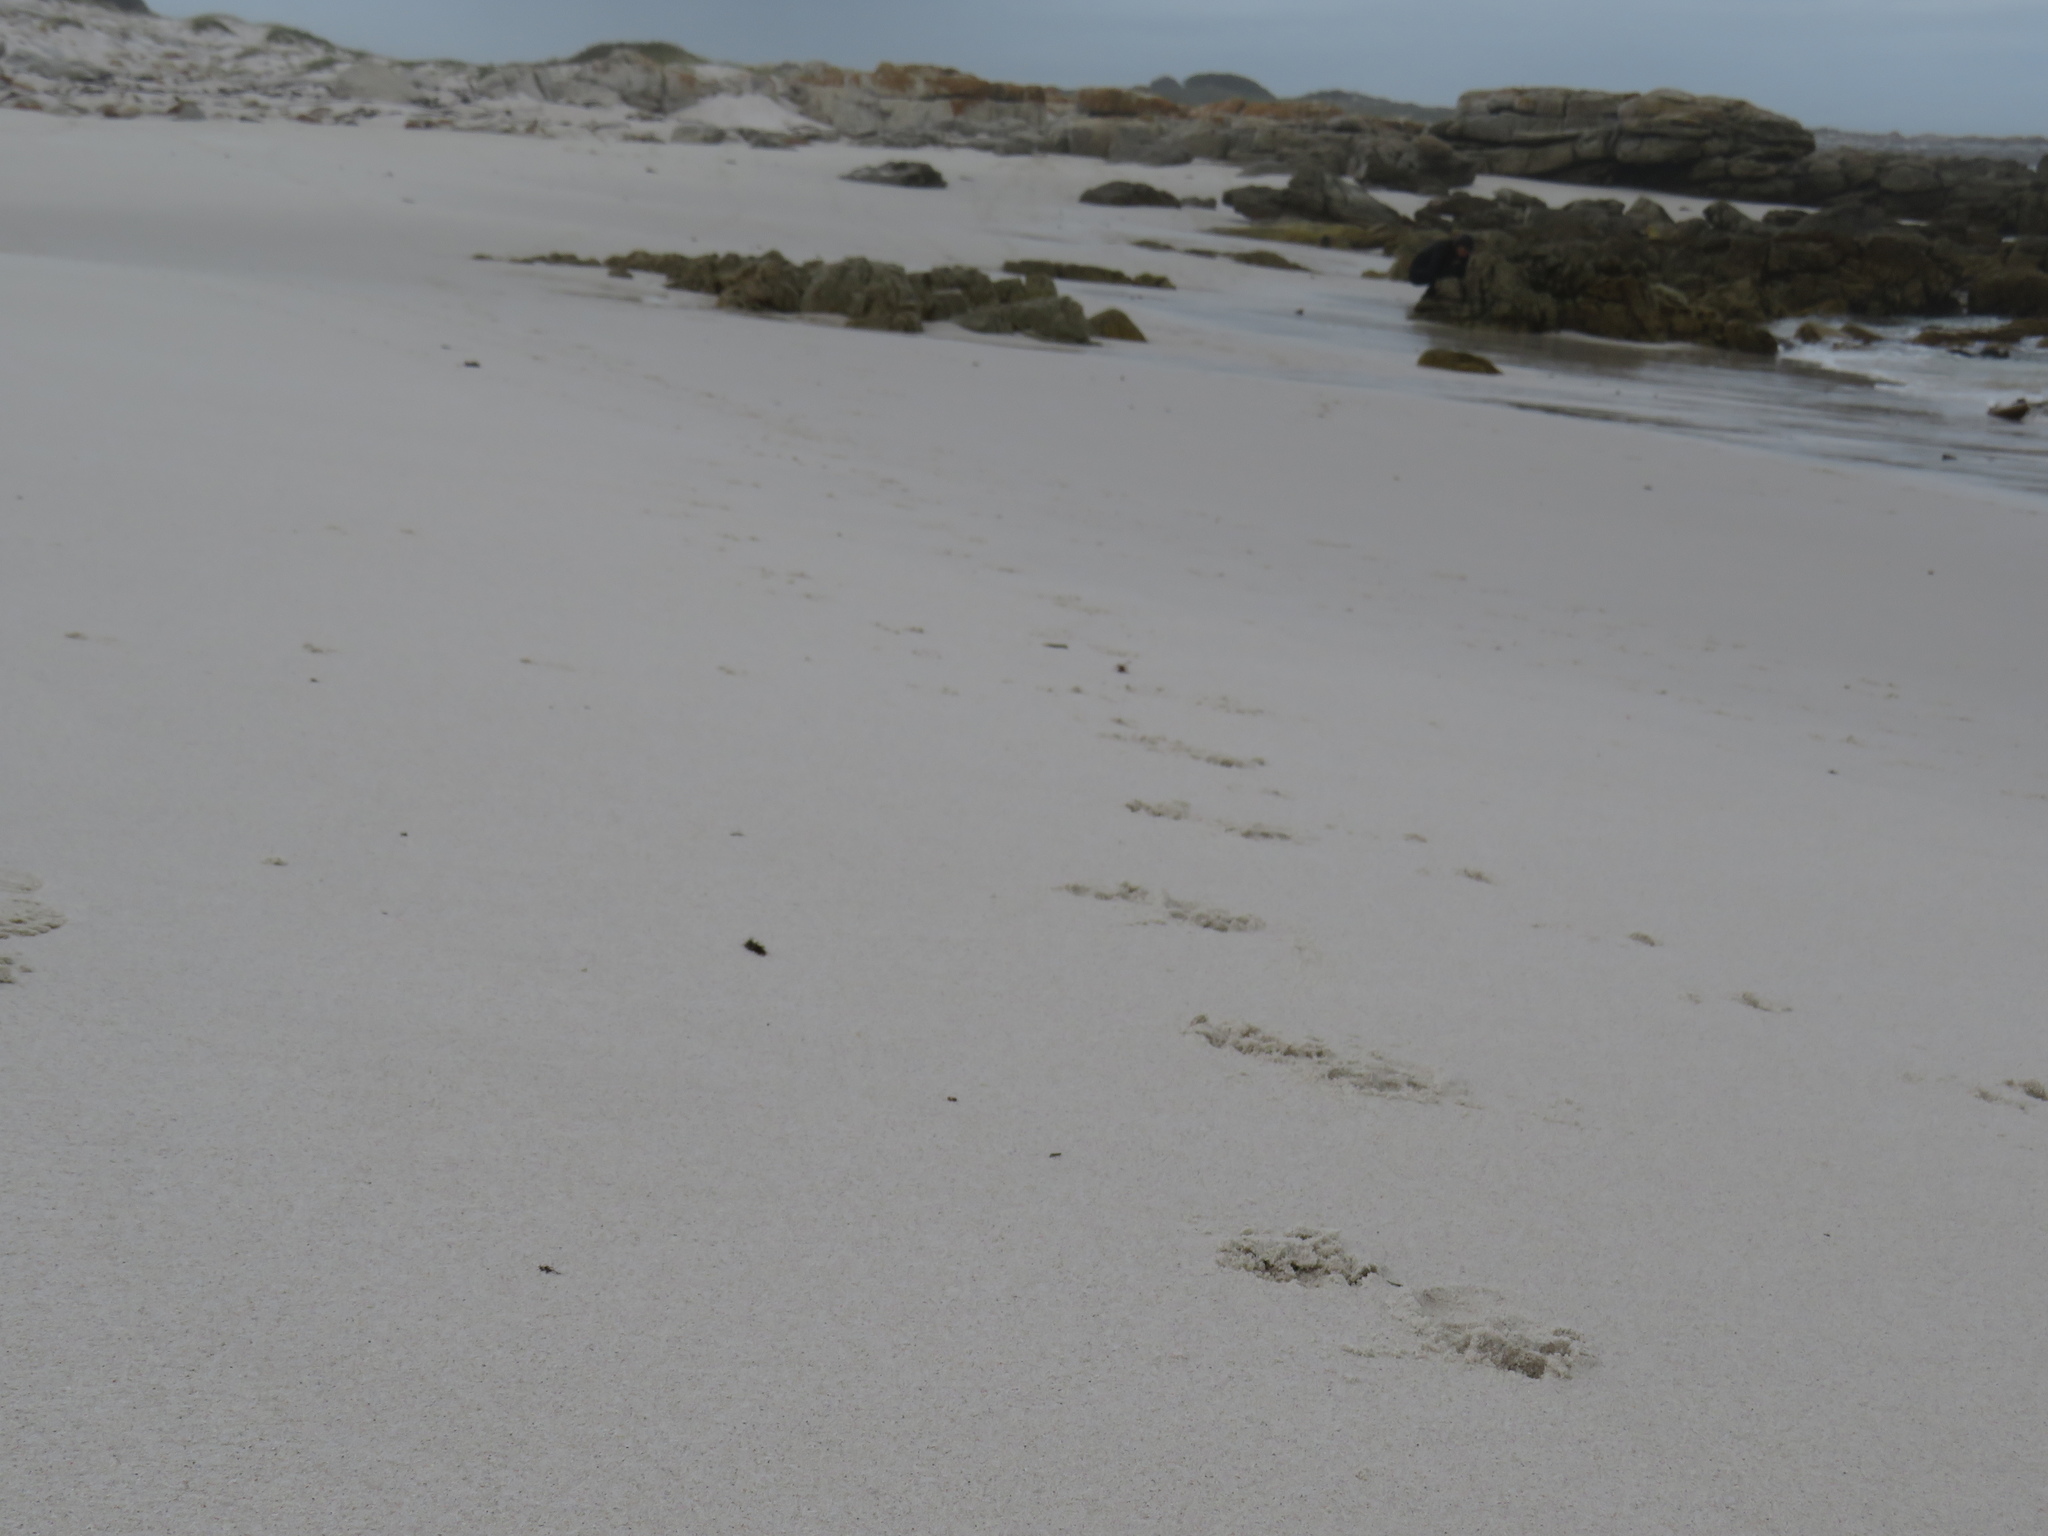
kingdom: Animalia
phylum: Chordata
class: Mammalia
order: Primates
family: Cercopithecidae
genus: Papio
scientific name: Papio ursinus
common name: Chacma baboon
